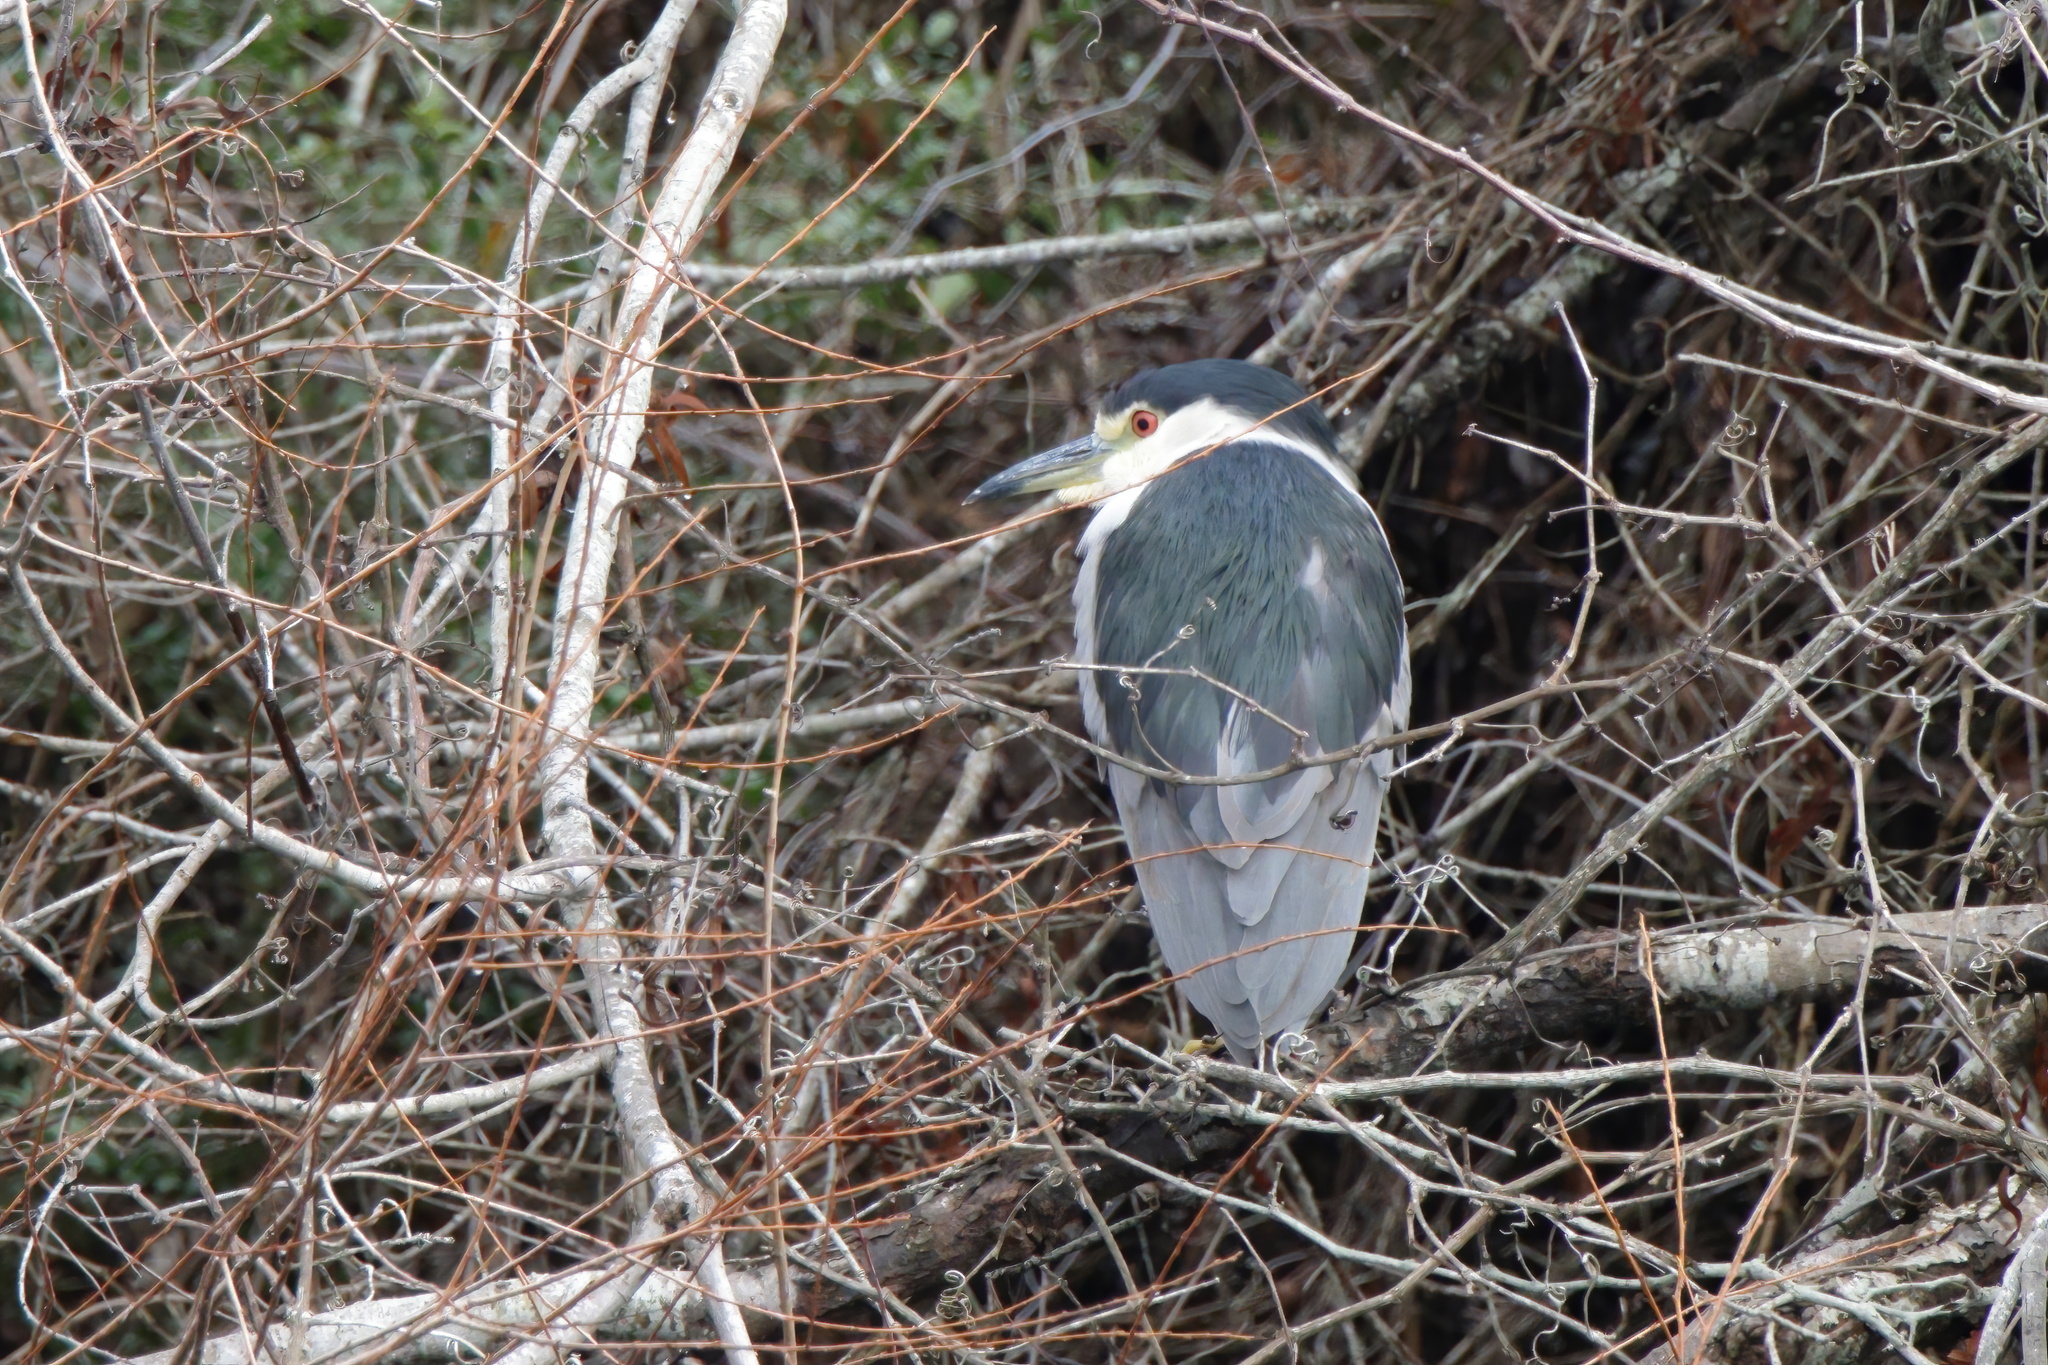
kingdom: Animalia
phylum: Chordata
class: Aves
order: Pelecaniformes
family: Ardeidae
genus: Nycticorax
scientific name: Nycticorax nycticorax
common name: Black-crowned night heron
